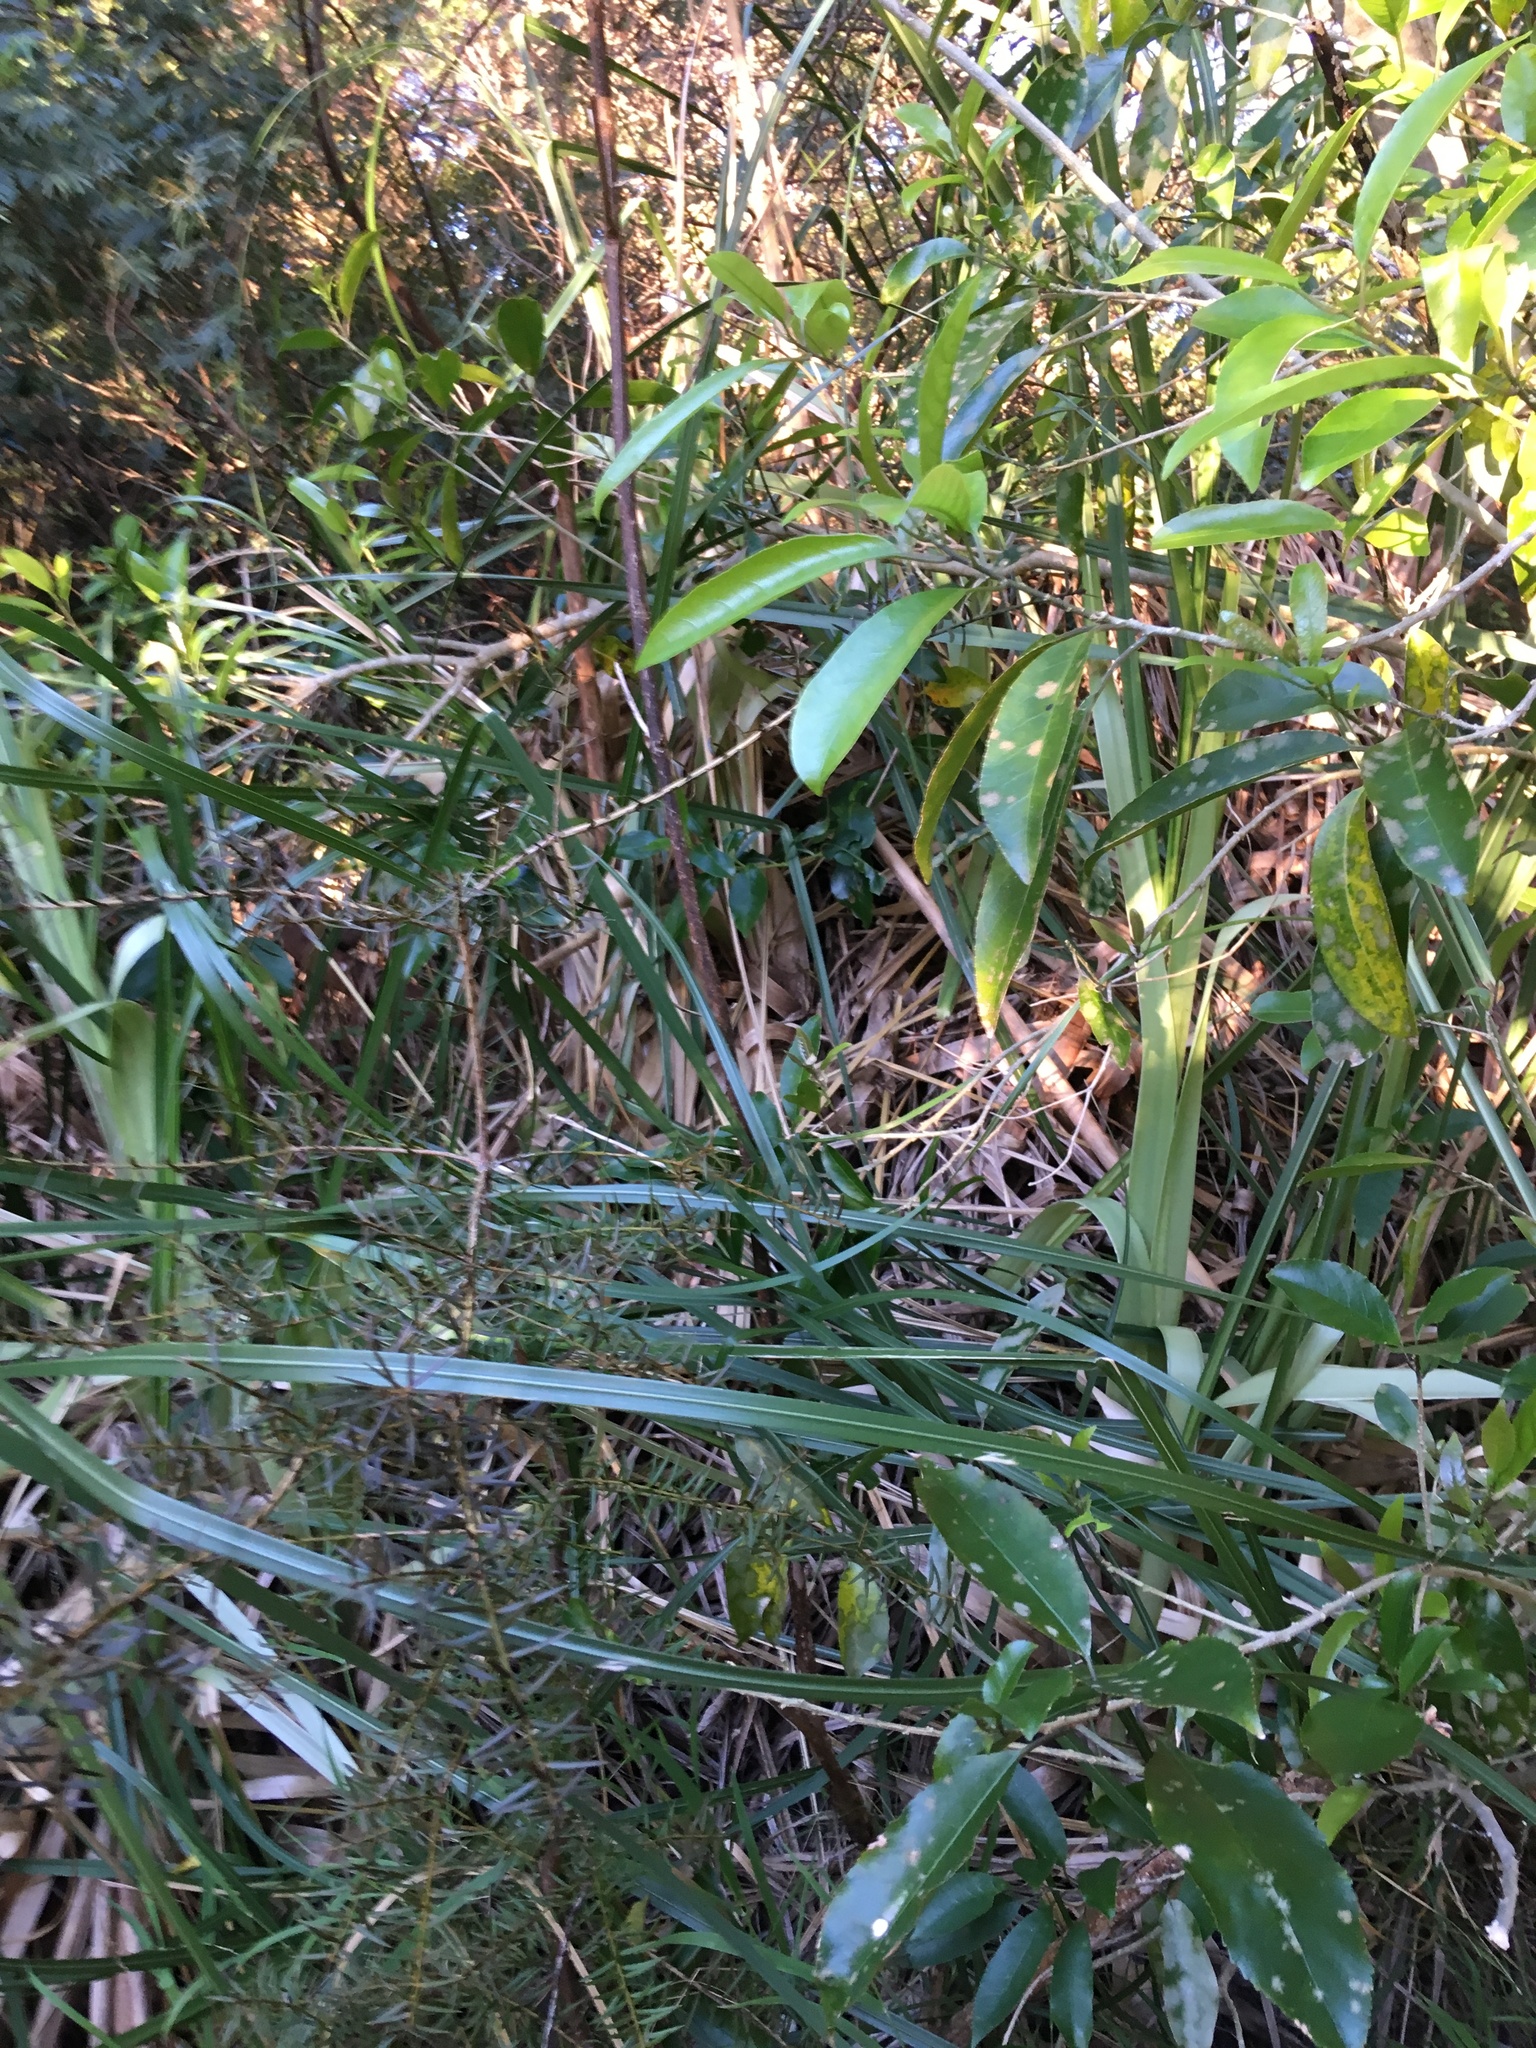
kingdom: Plantae
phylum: Tracheophyta
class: Magnoliopsida
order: Malpighiales
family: Violaceae
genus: Melicytus
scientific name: Melicytus ramiflorus
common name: Mahoe
